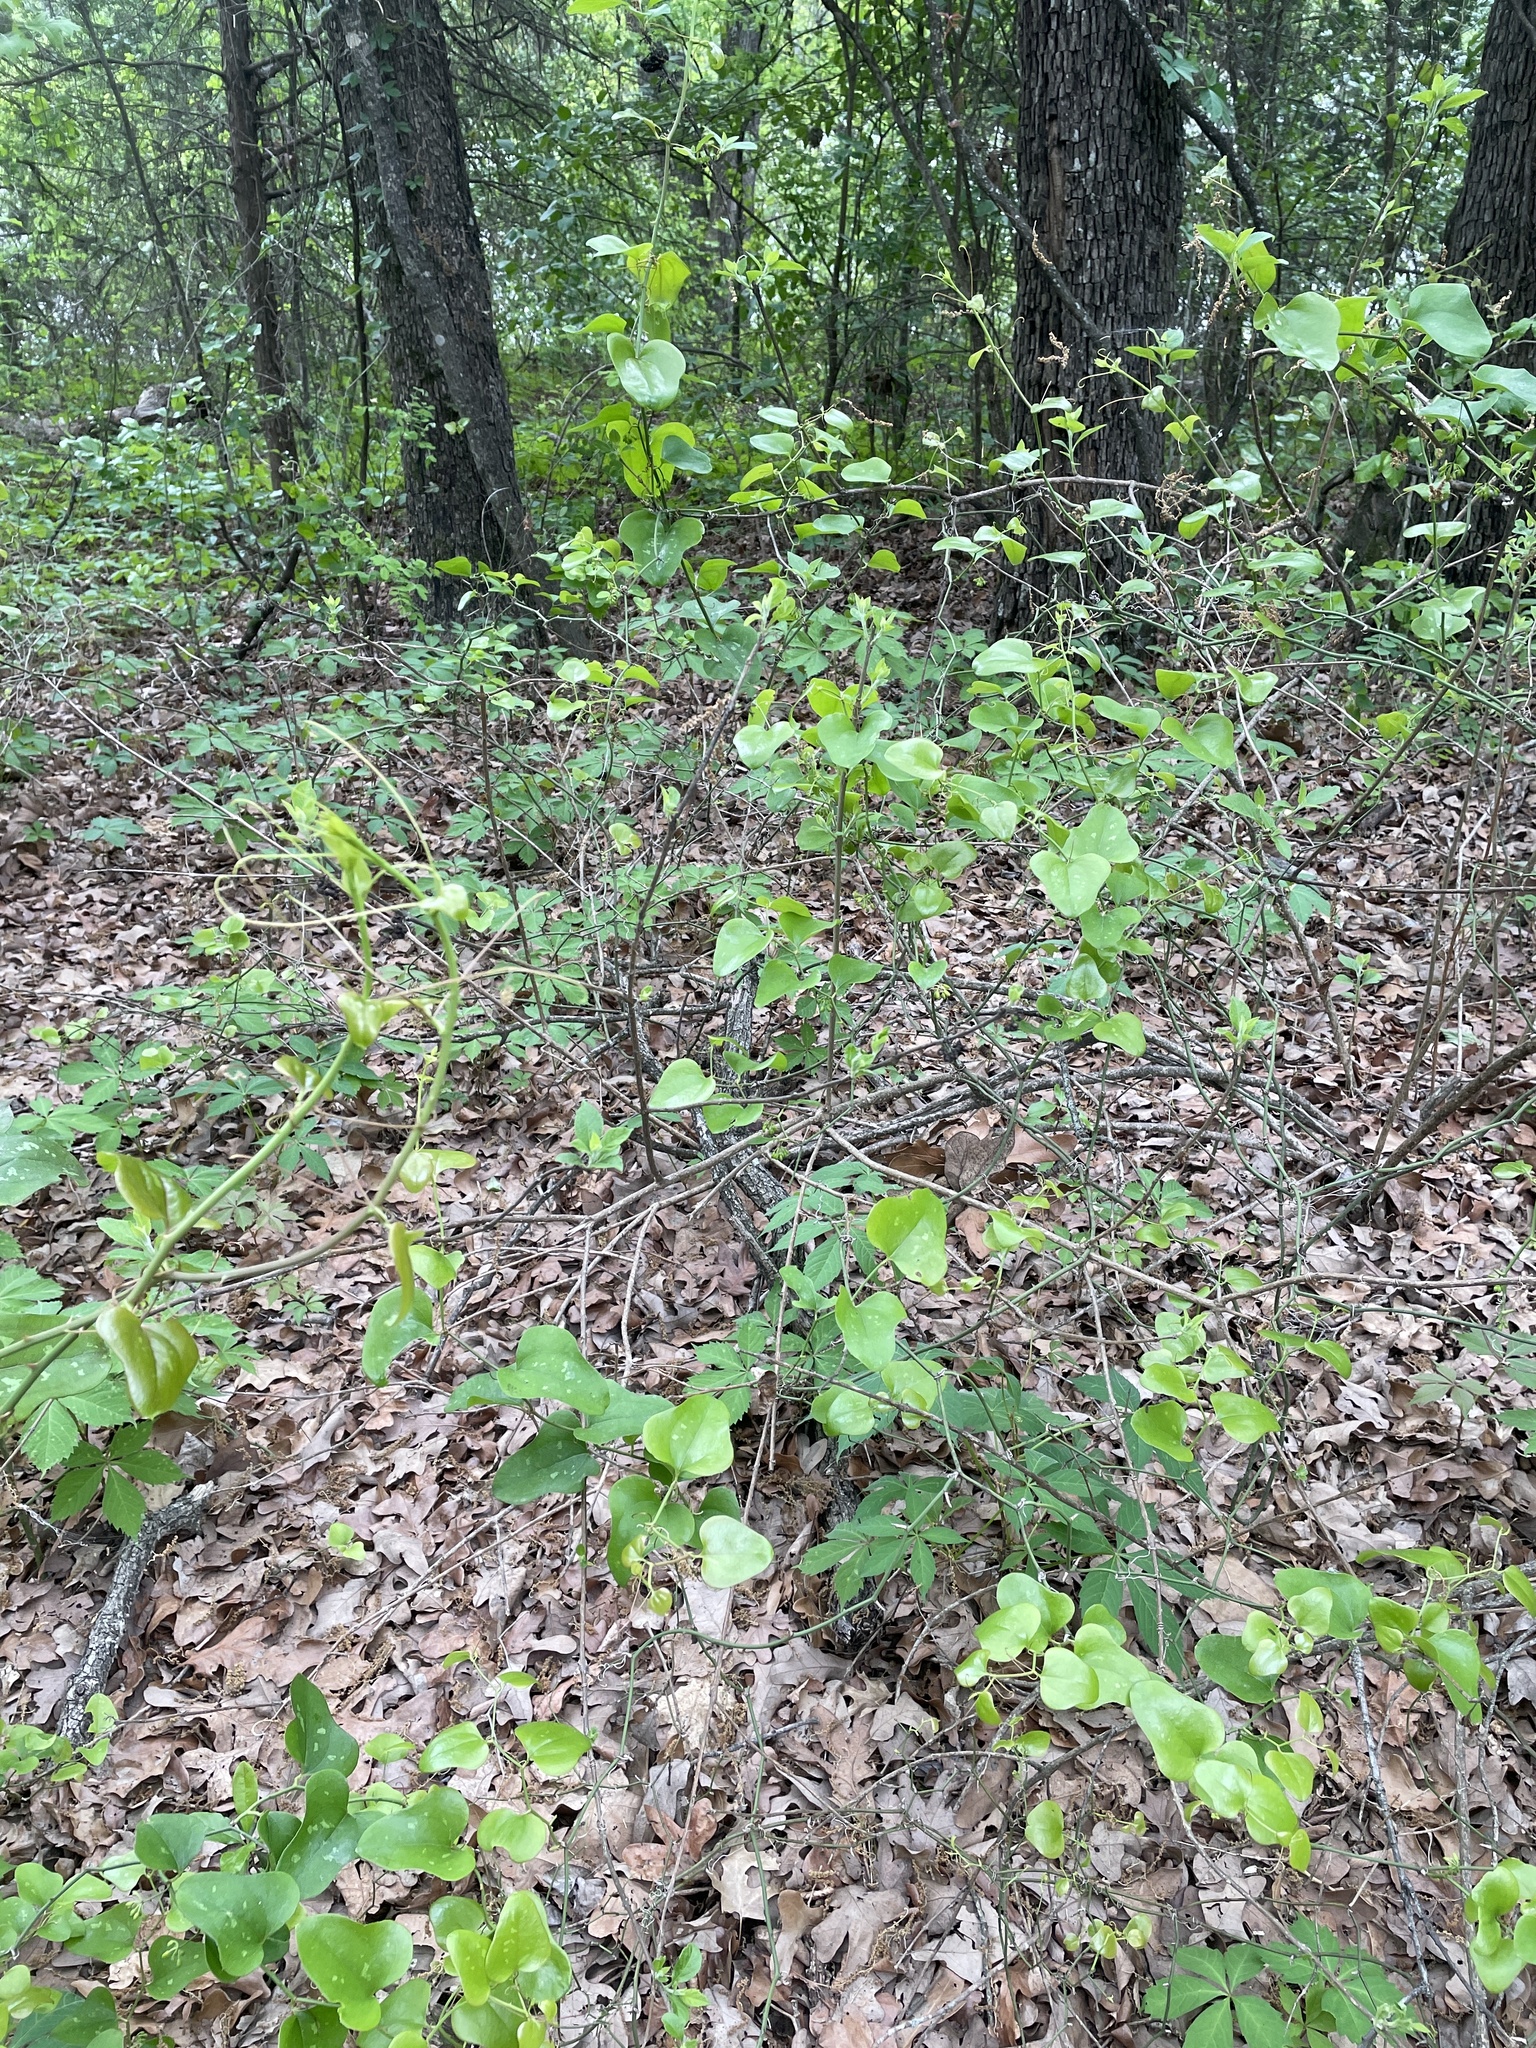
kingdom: Plantae
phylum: Tracheophyta
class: Magnoliopsida
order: Lamiales
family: Lamiaceae
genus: Callicarpa
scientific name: Callicarpa americana
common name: American beautyberry
